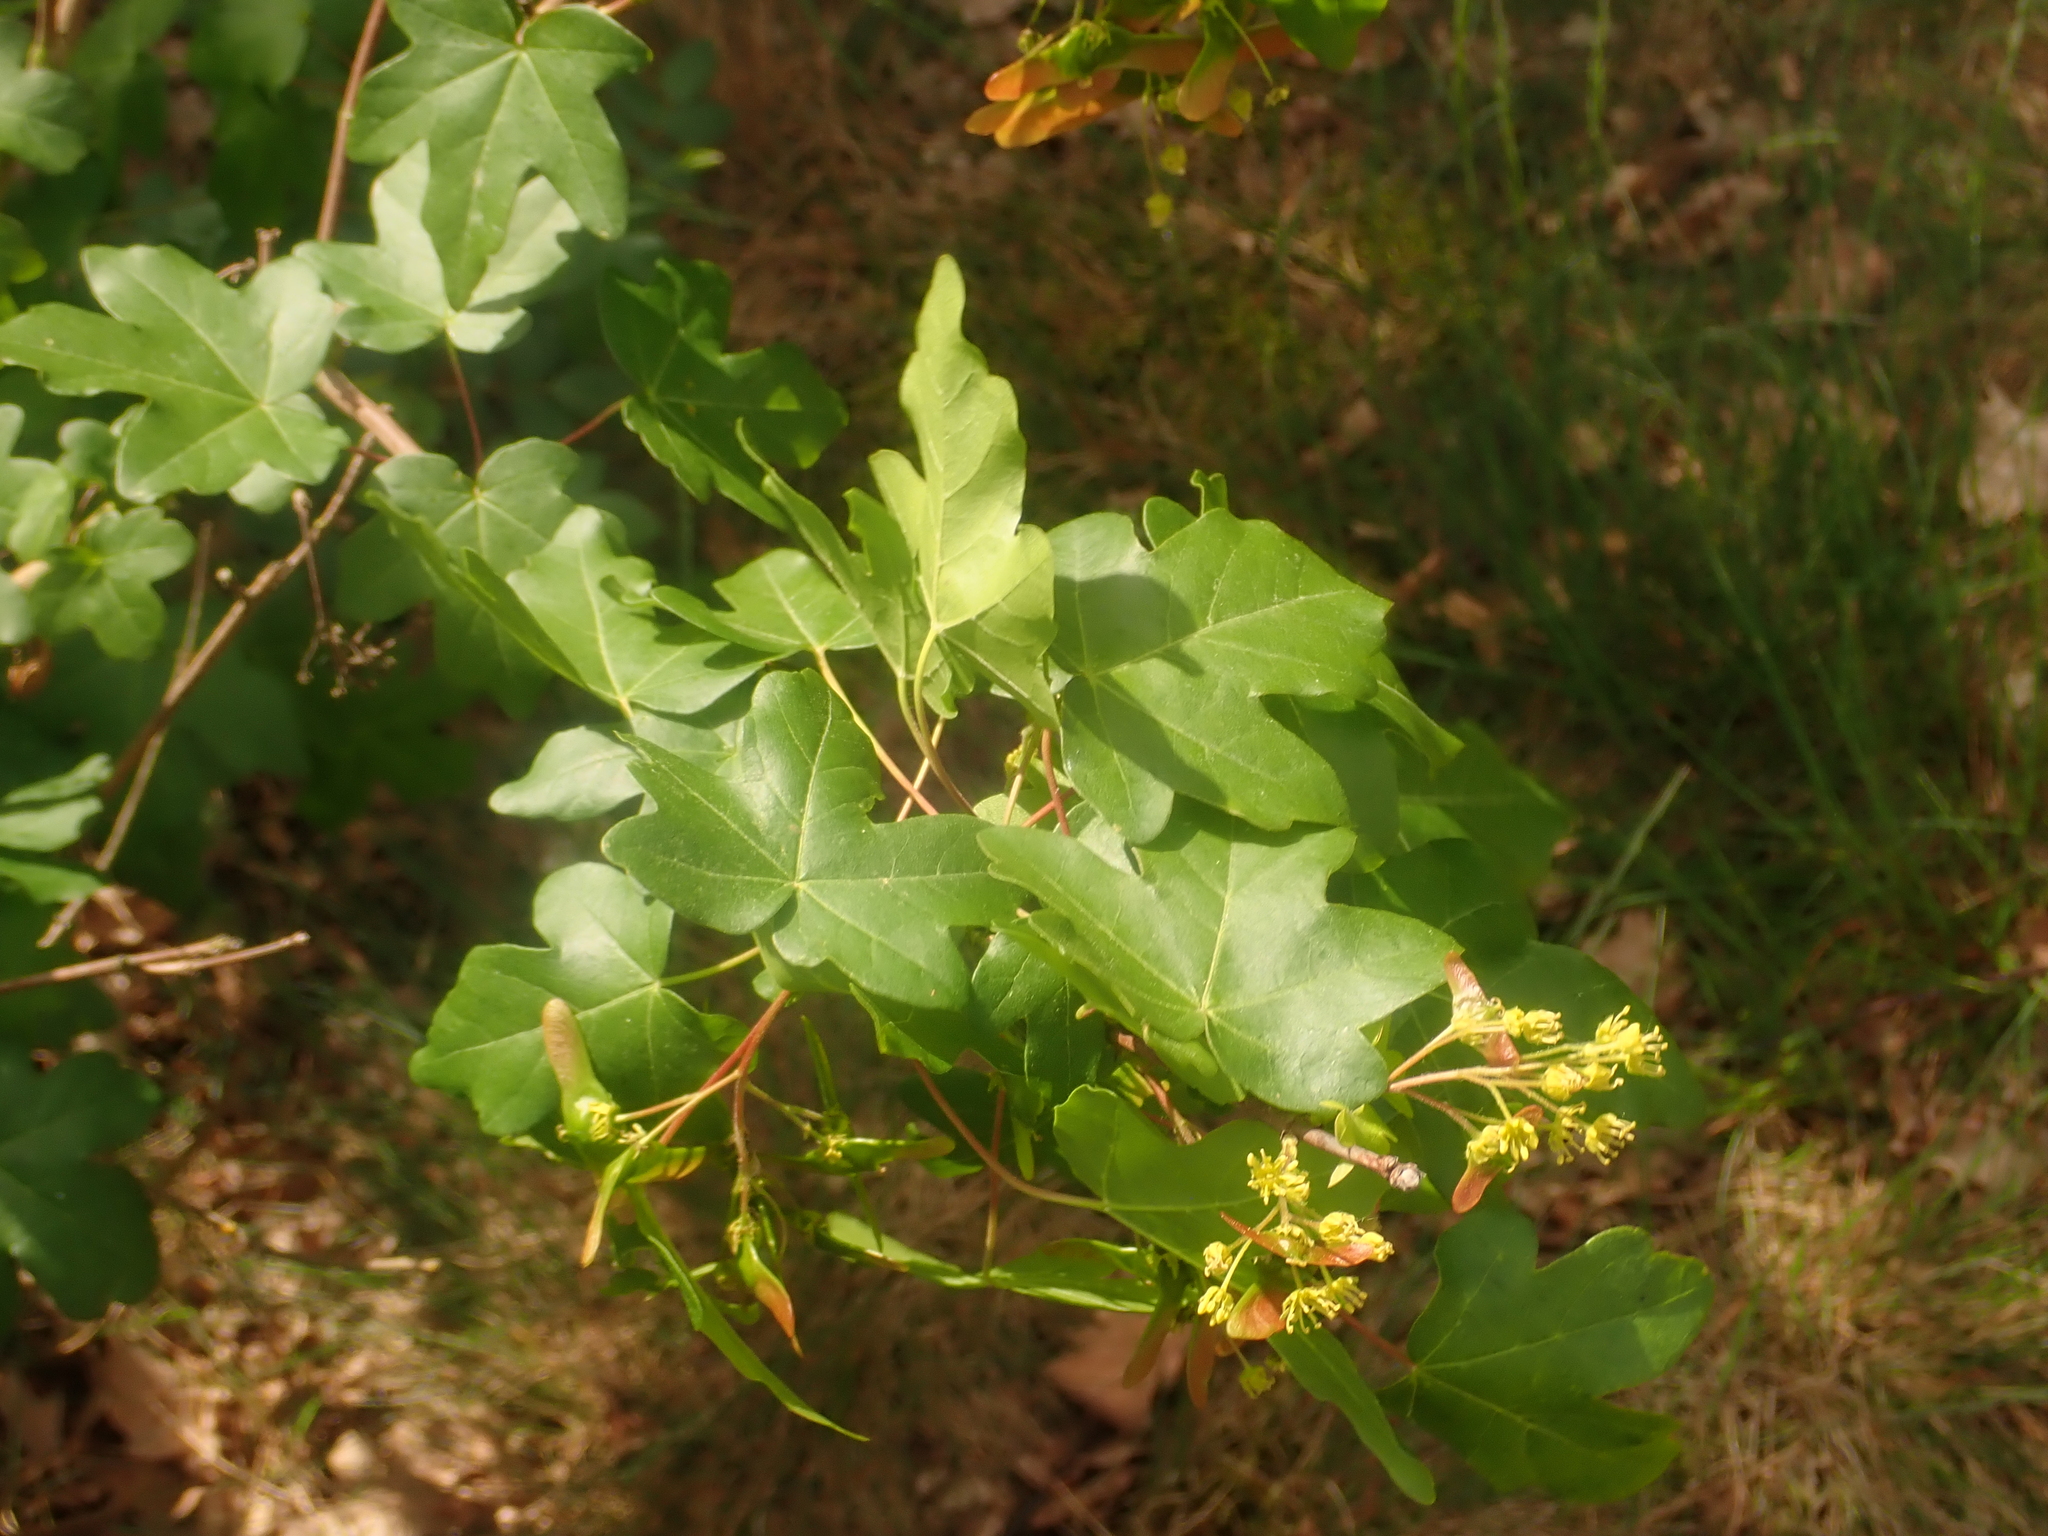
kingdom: Plantae
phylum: Tracheophyta
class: Magnoliopsida
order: Sapindales
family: Sapindaceae
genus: Acer
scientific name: Acer campestre
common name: Field maple
